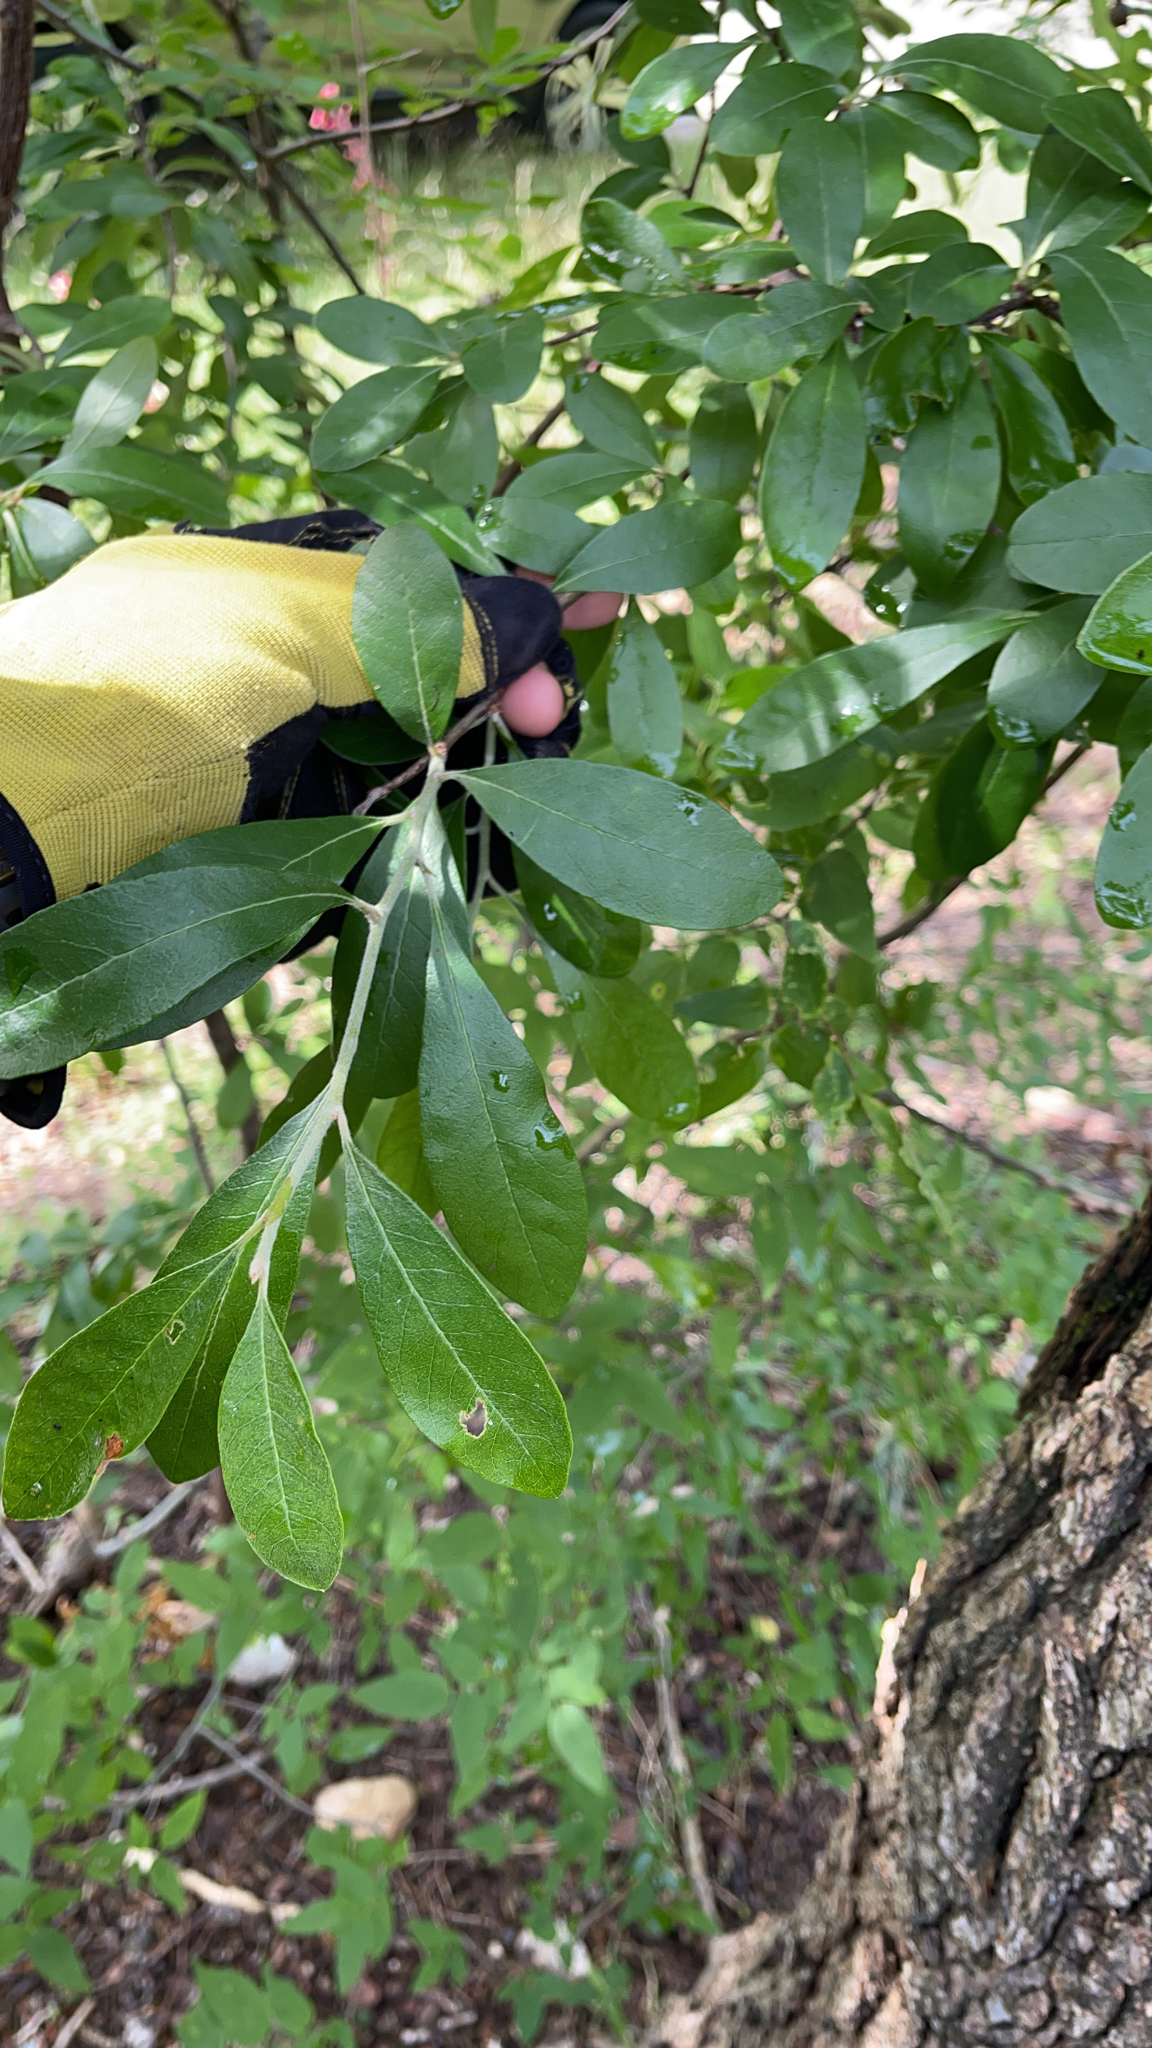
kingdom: Plantae
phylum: Tracheophyta
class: Magnoliopsida
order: Ericales
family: Sapotaceae
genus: Sideroxylon
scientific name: Sideroxylon lanuginosum
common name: Chittamwood
